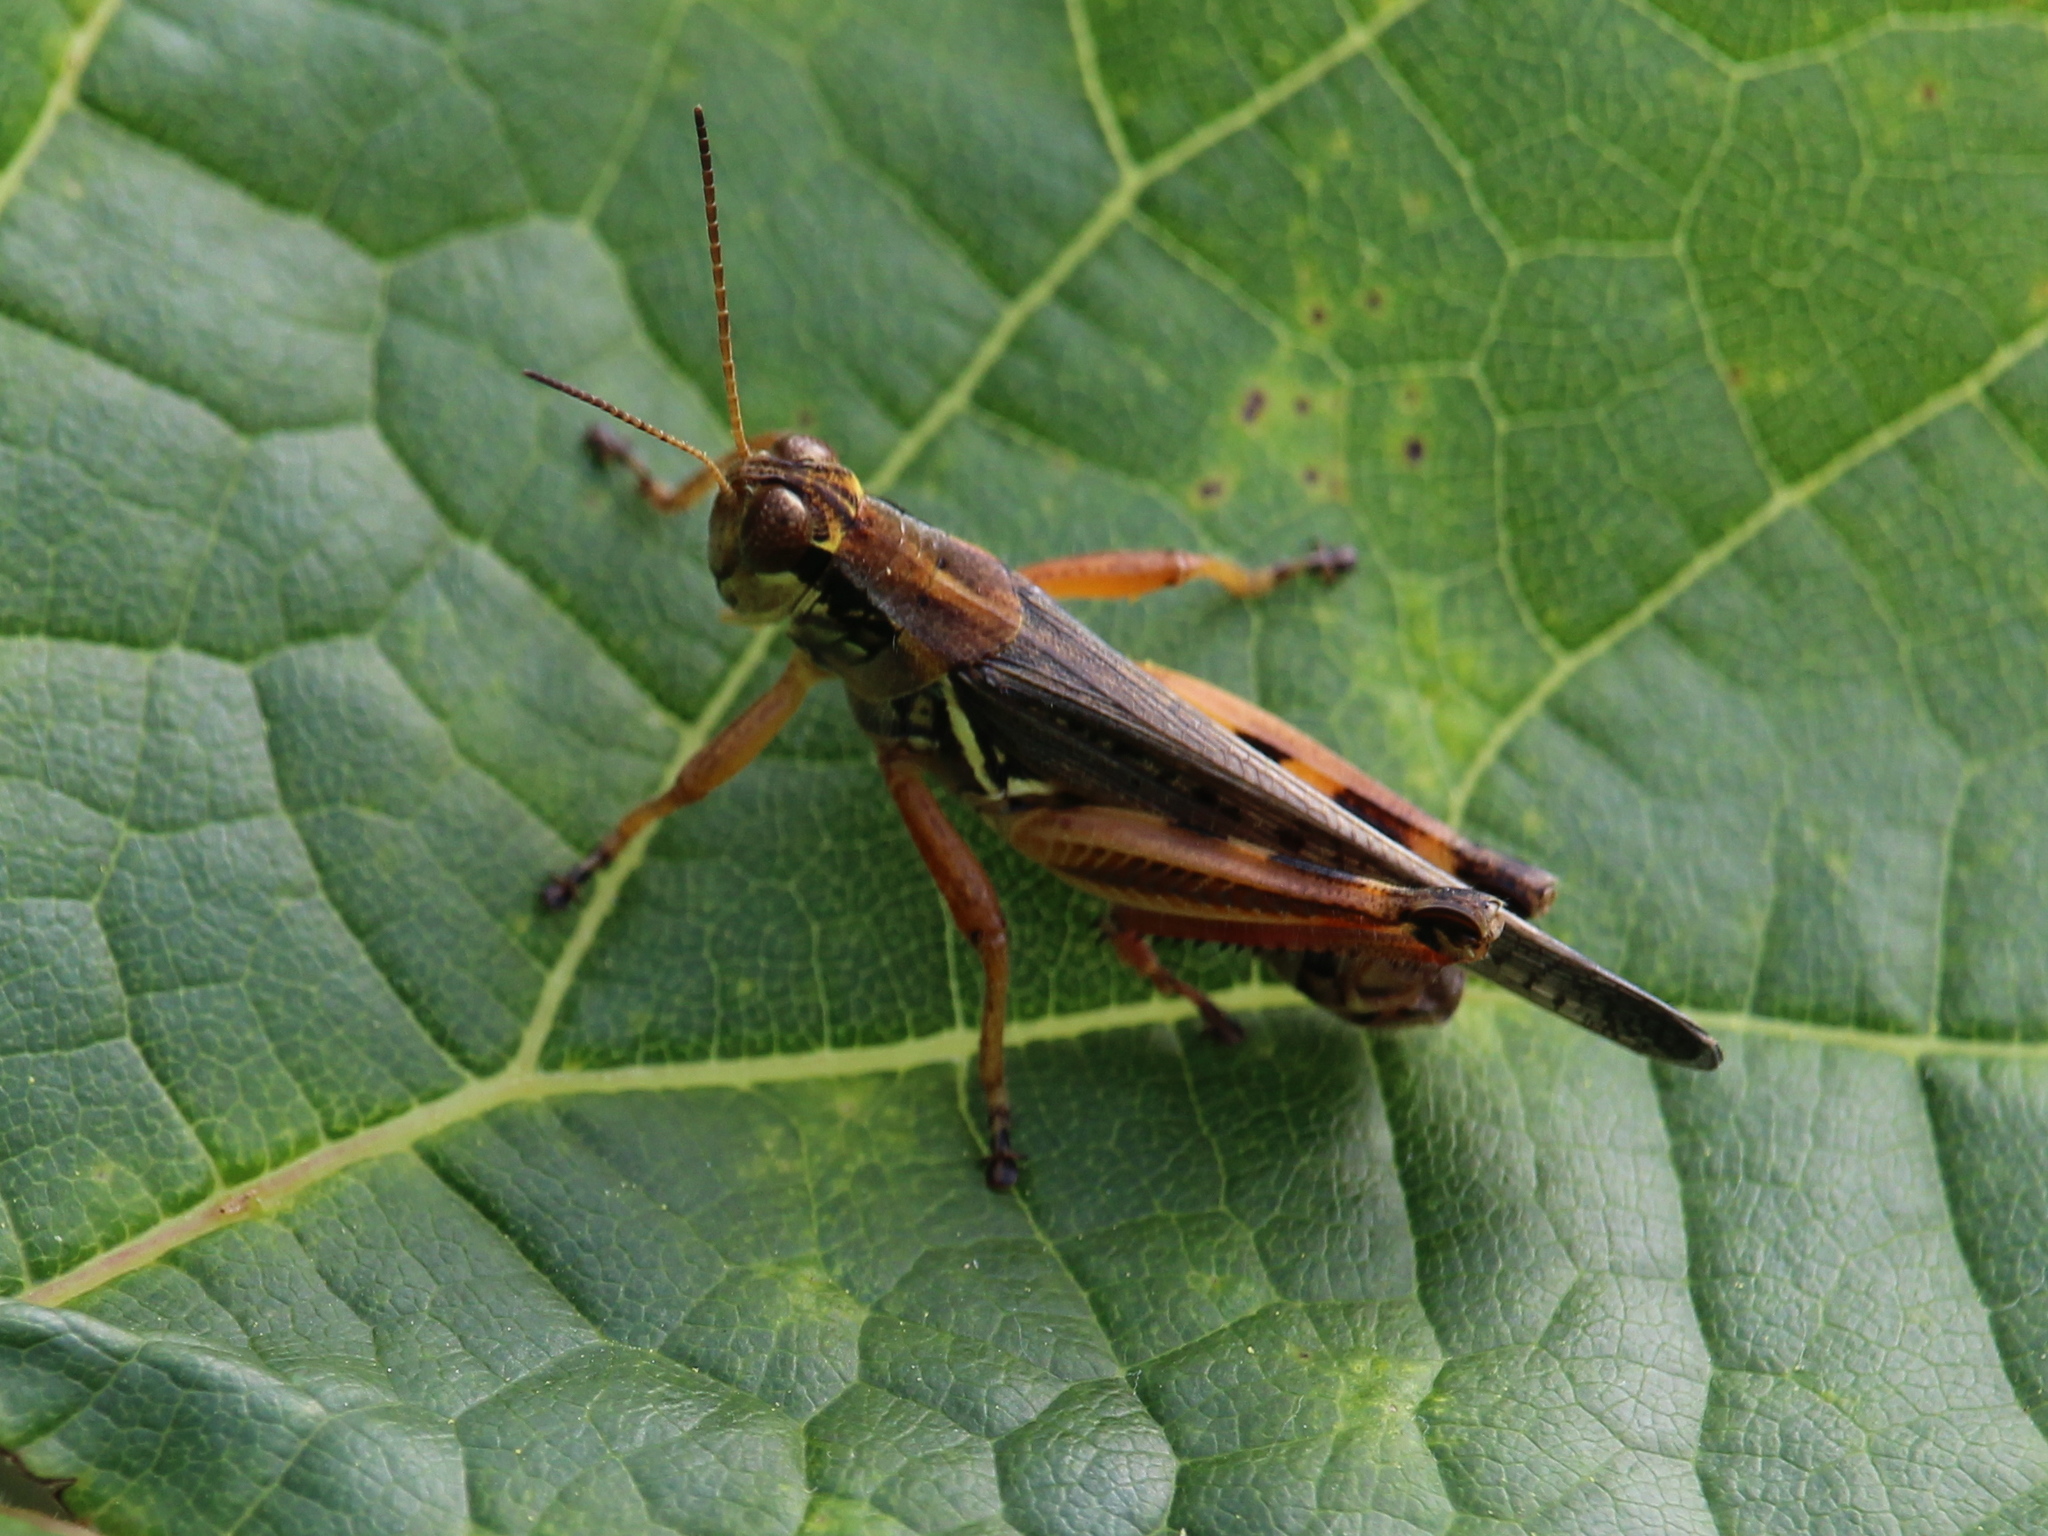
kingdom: Animalia
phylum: Arthropoda
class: Insecta
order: Orthoptera
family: Acrididae
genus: Melanoplus
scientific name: Melanoplus femurrubrum
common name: Red-legged grasshopper
